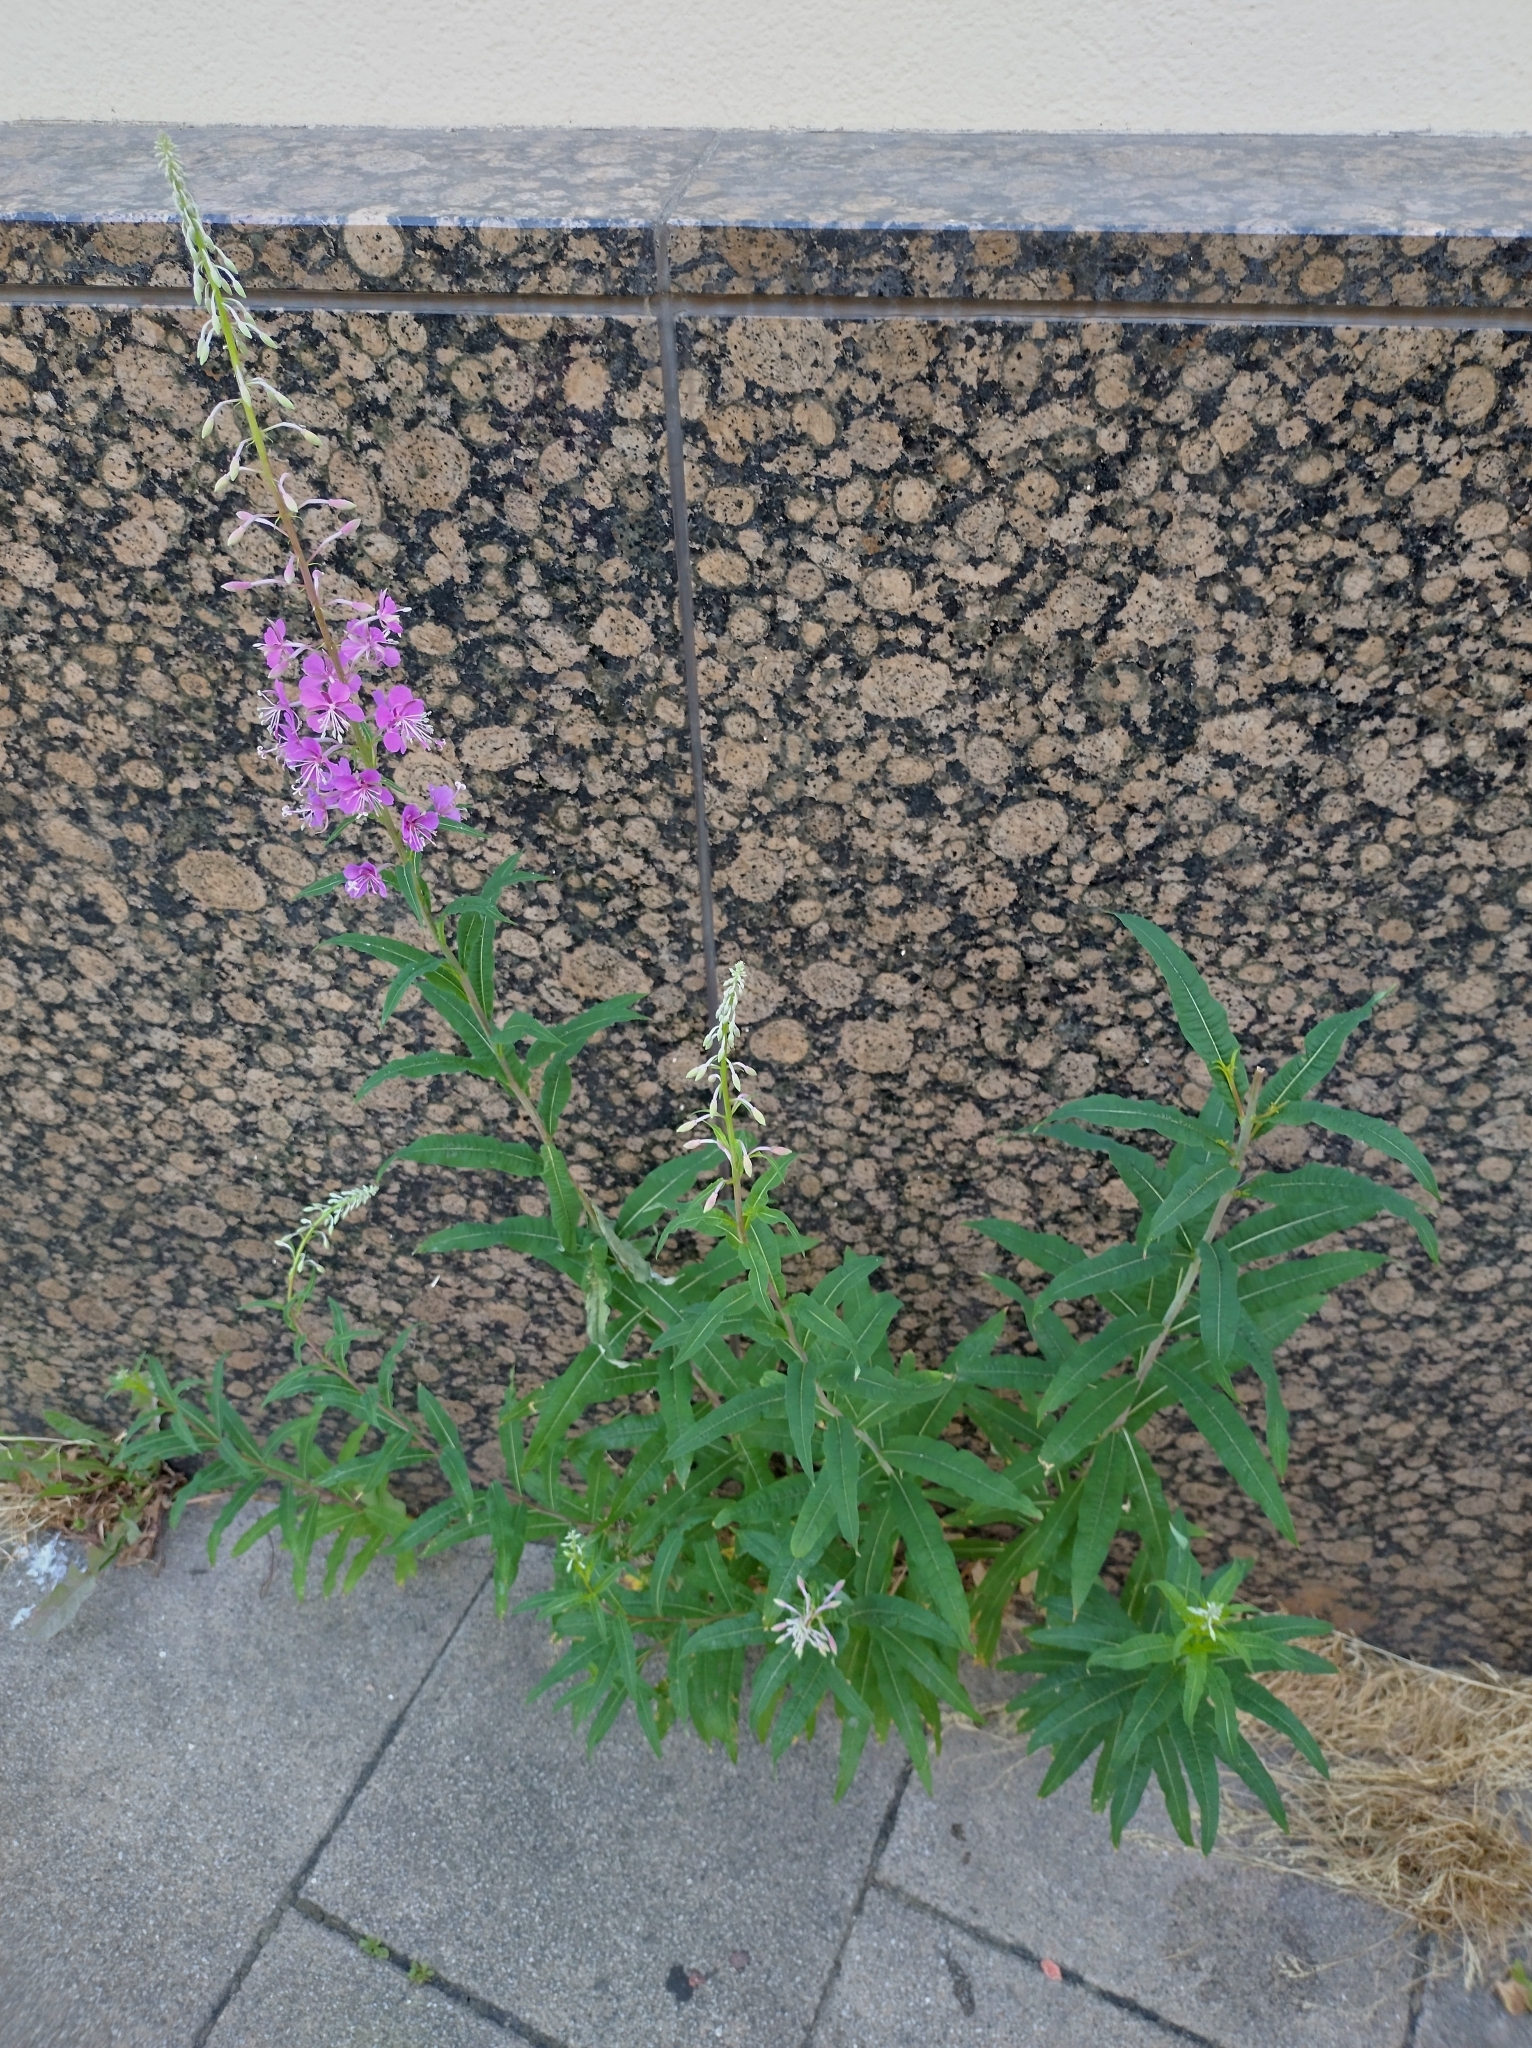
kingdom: Plantae
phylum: Tracheophyta
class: Magnoliopsida
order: Myrtales
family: Onagraceae
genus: Chamaenerion
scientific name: Chamaenerion angustifolium
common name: Fireweed
